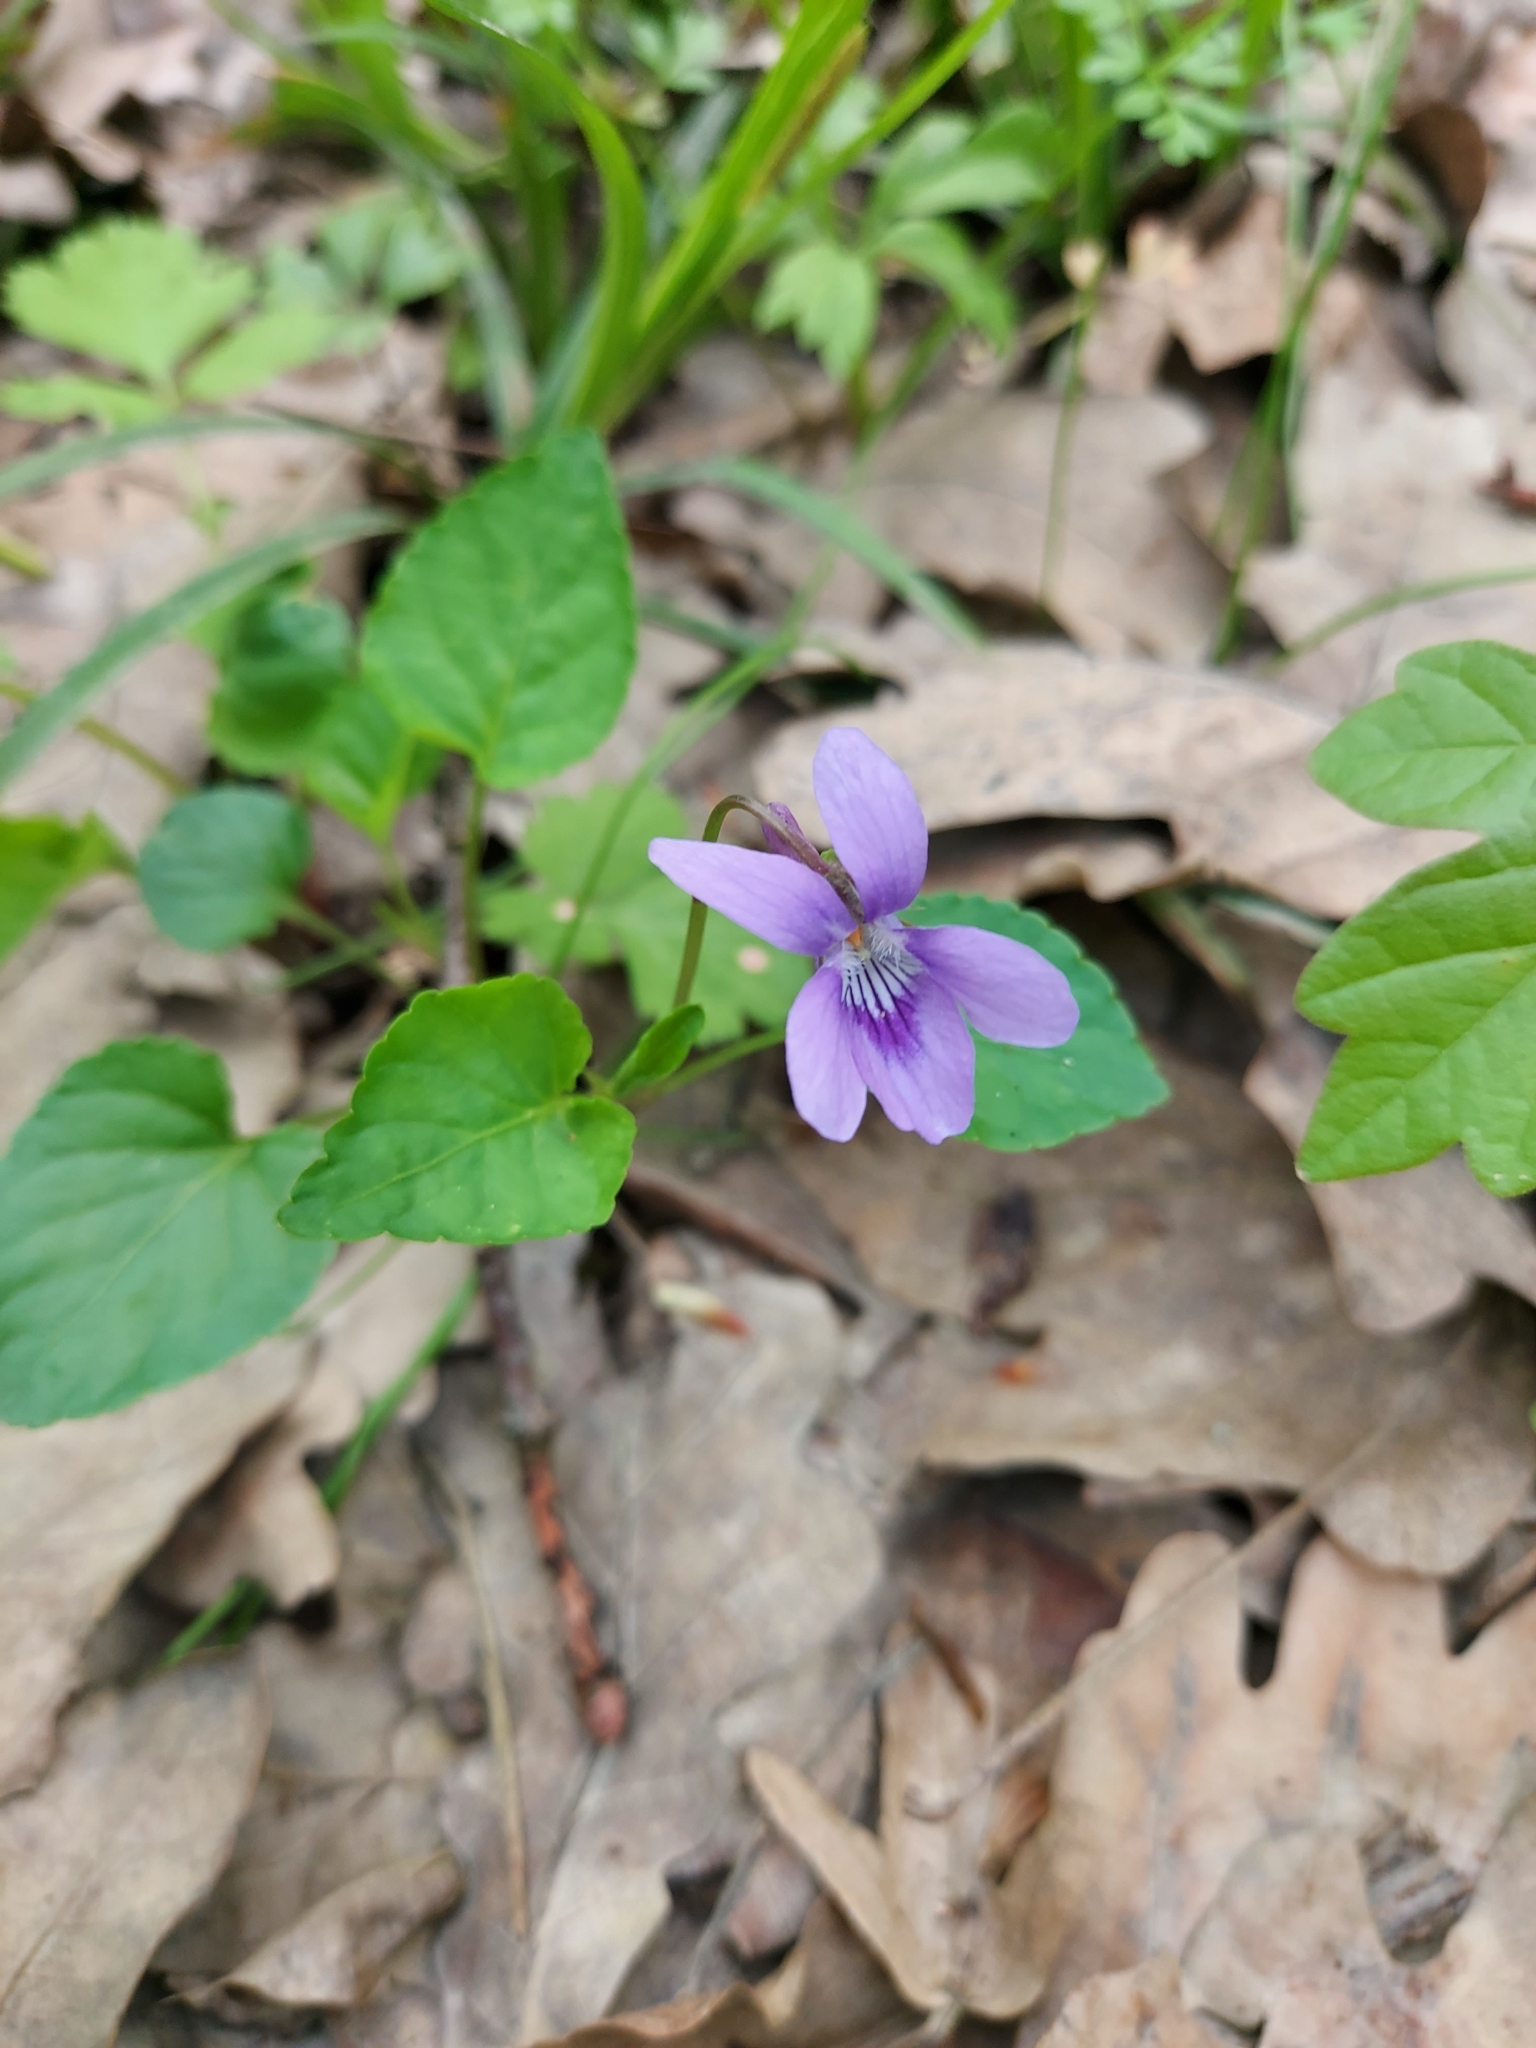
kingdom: Plantae
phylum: Tracheophyta
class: Magnoliopsida
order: Malpighiales
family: Violaceae
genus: Viola
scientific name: Viola reichenbachiana
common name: Early dog-violet
